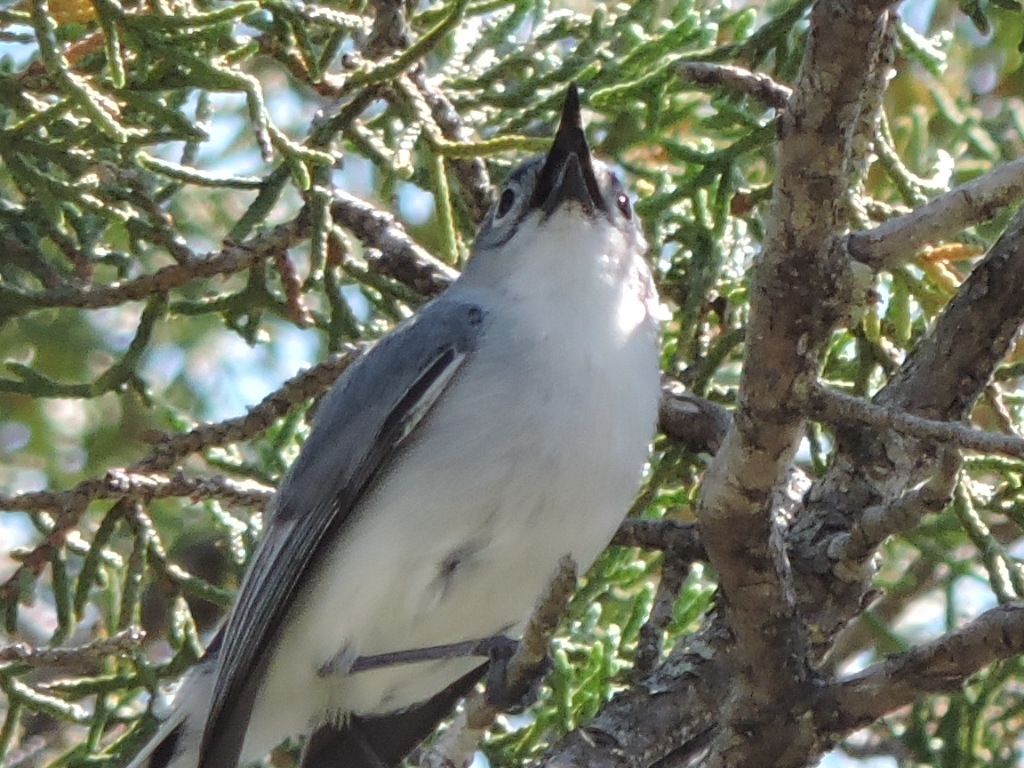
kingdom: Animalia
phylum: Chordata
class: Aves
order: Passeriformes
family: Polioptilidae
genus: Polioptila
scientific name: Polioptila caerulea
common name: Blue-gray gnatcatcher
